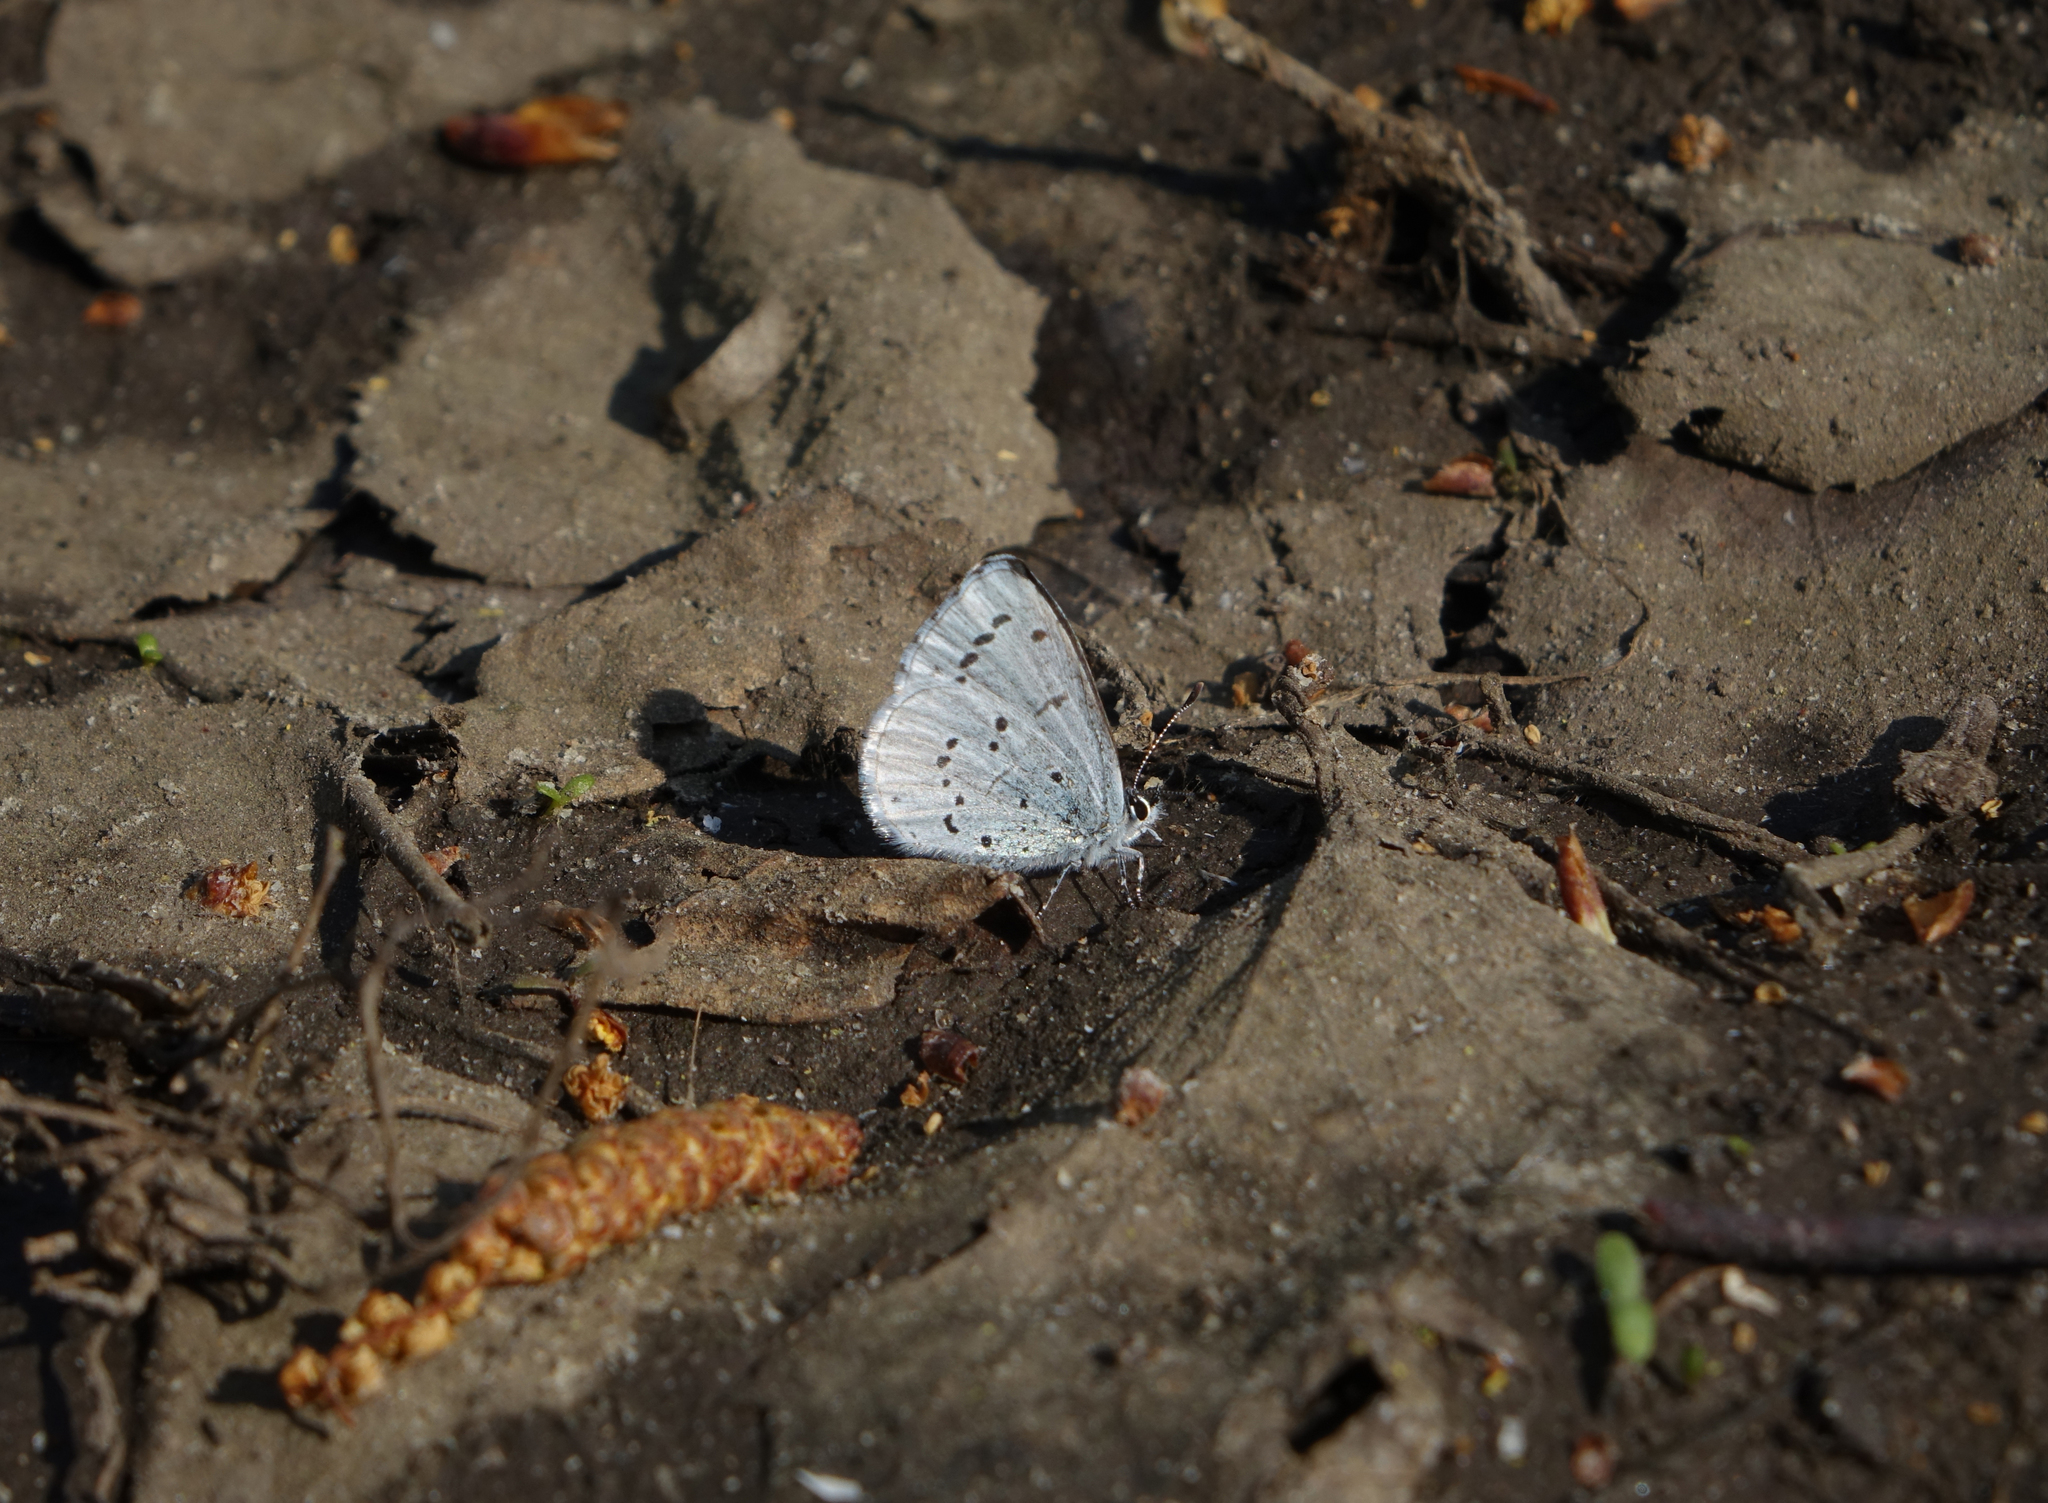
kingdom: Animalia
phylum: Arthropoda
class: Insecta
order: Lepidoptera
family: Lycaenidae
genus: Celastrina
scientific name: Celastrina argiolus
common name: Holly blue
